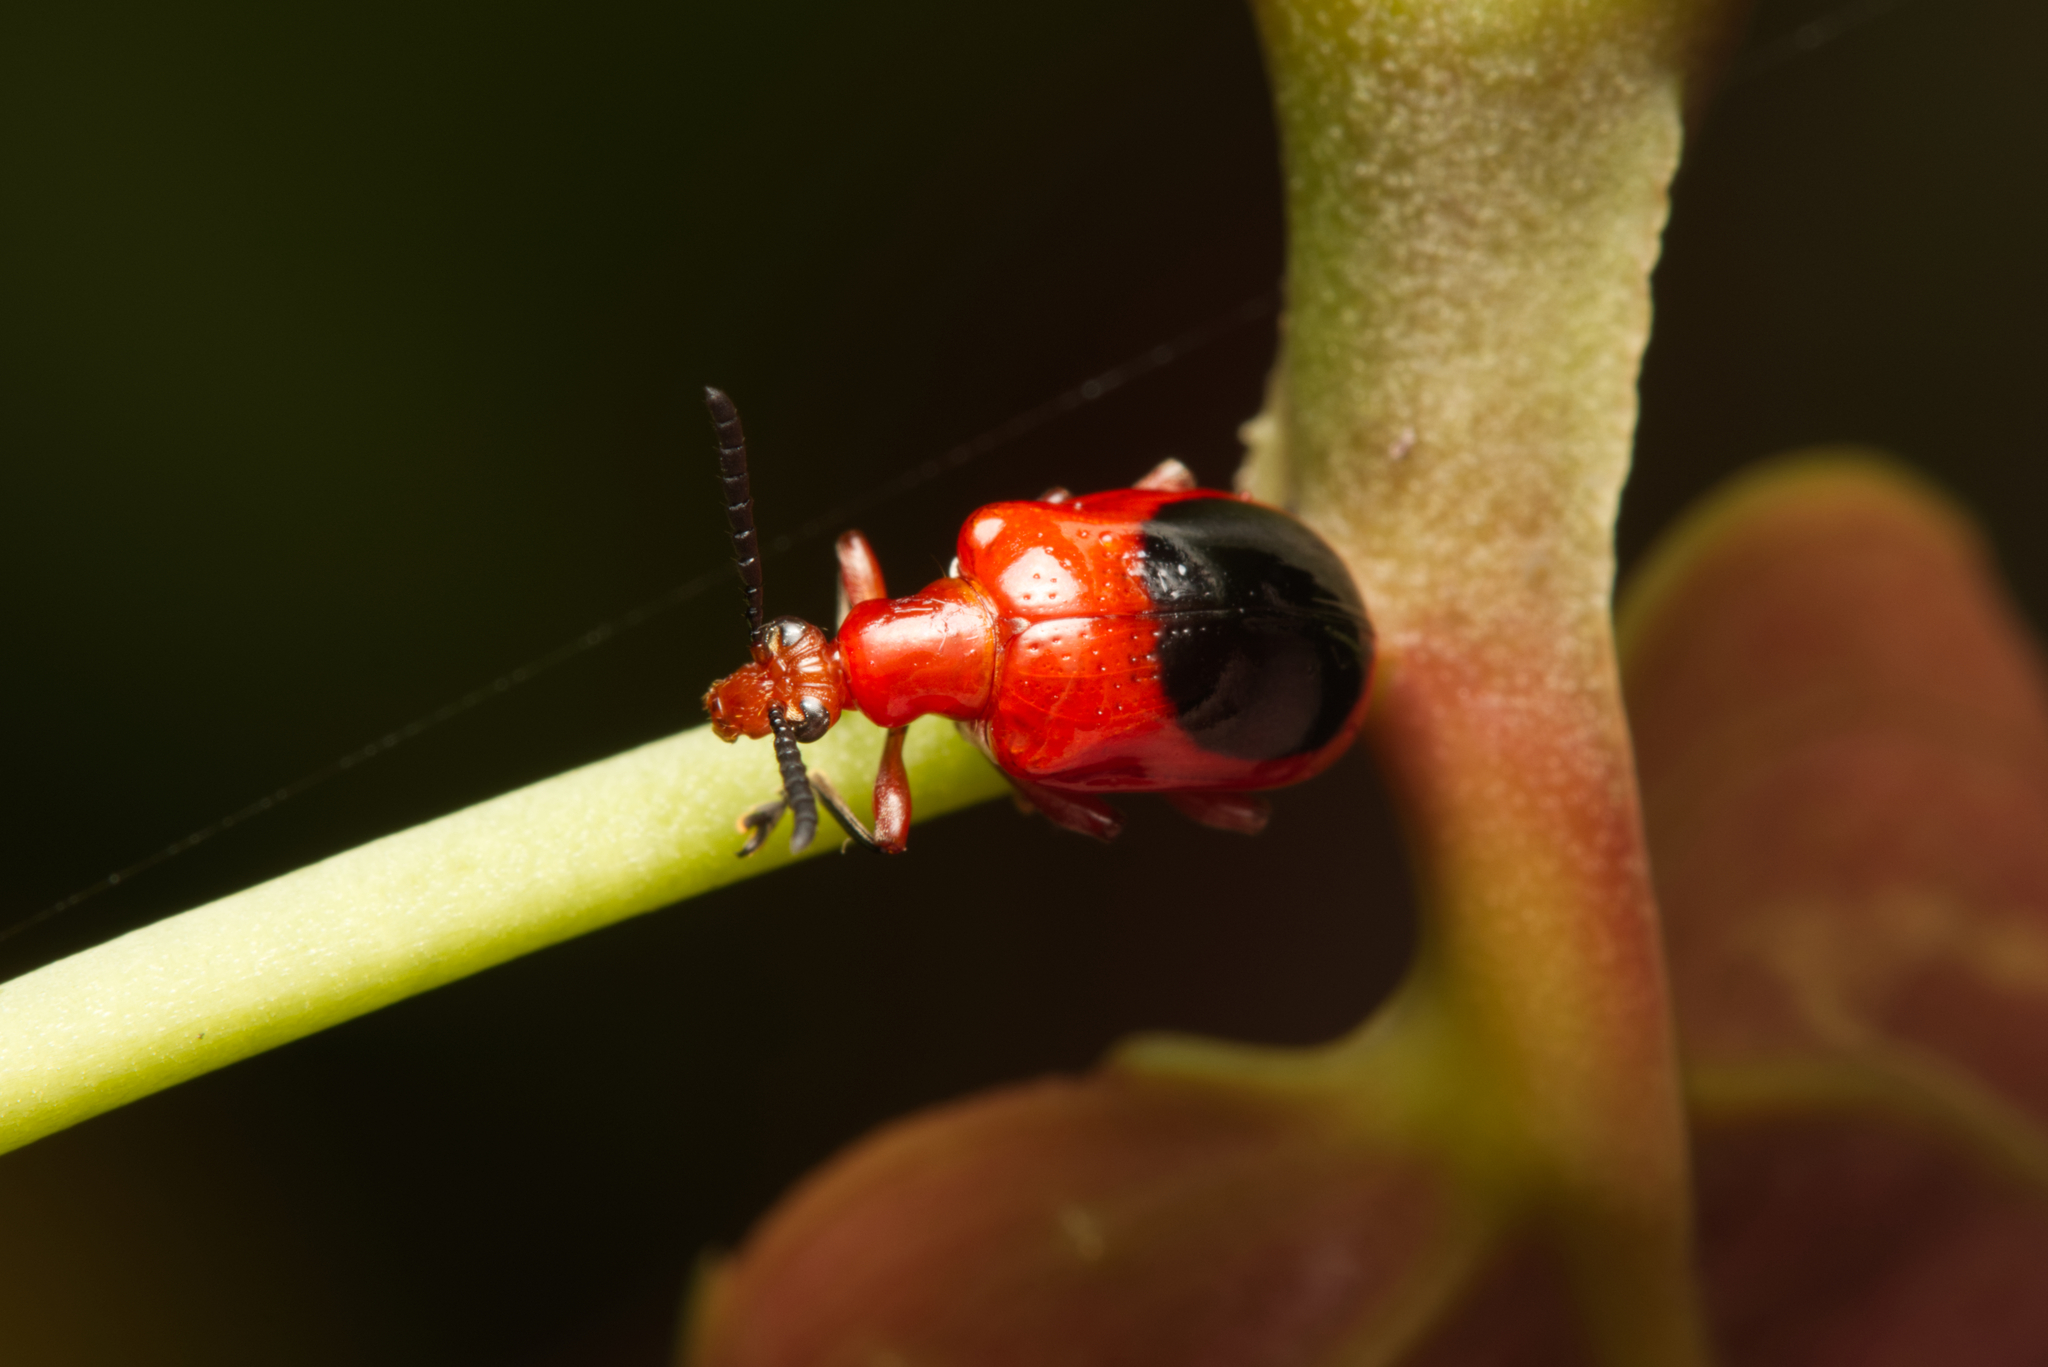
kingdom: Animalia
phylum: Arthropoda
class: Insecta
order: Coleoptera
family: Chrysomelidae
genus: Lilioceris
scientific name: Lilioceris
